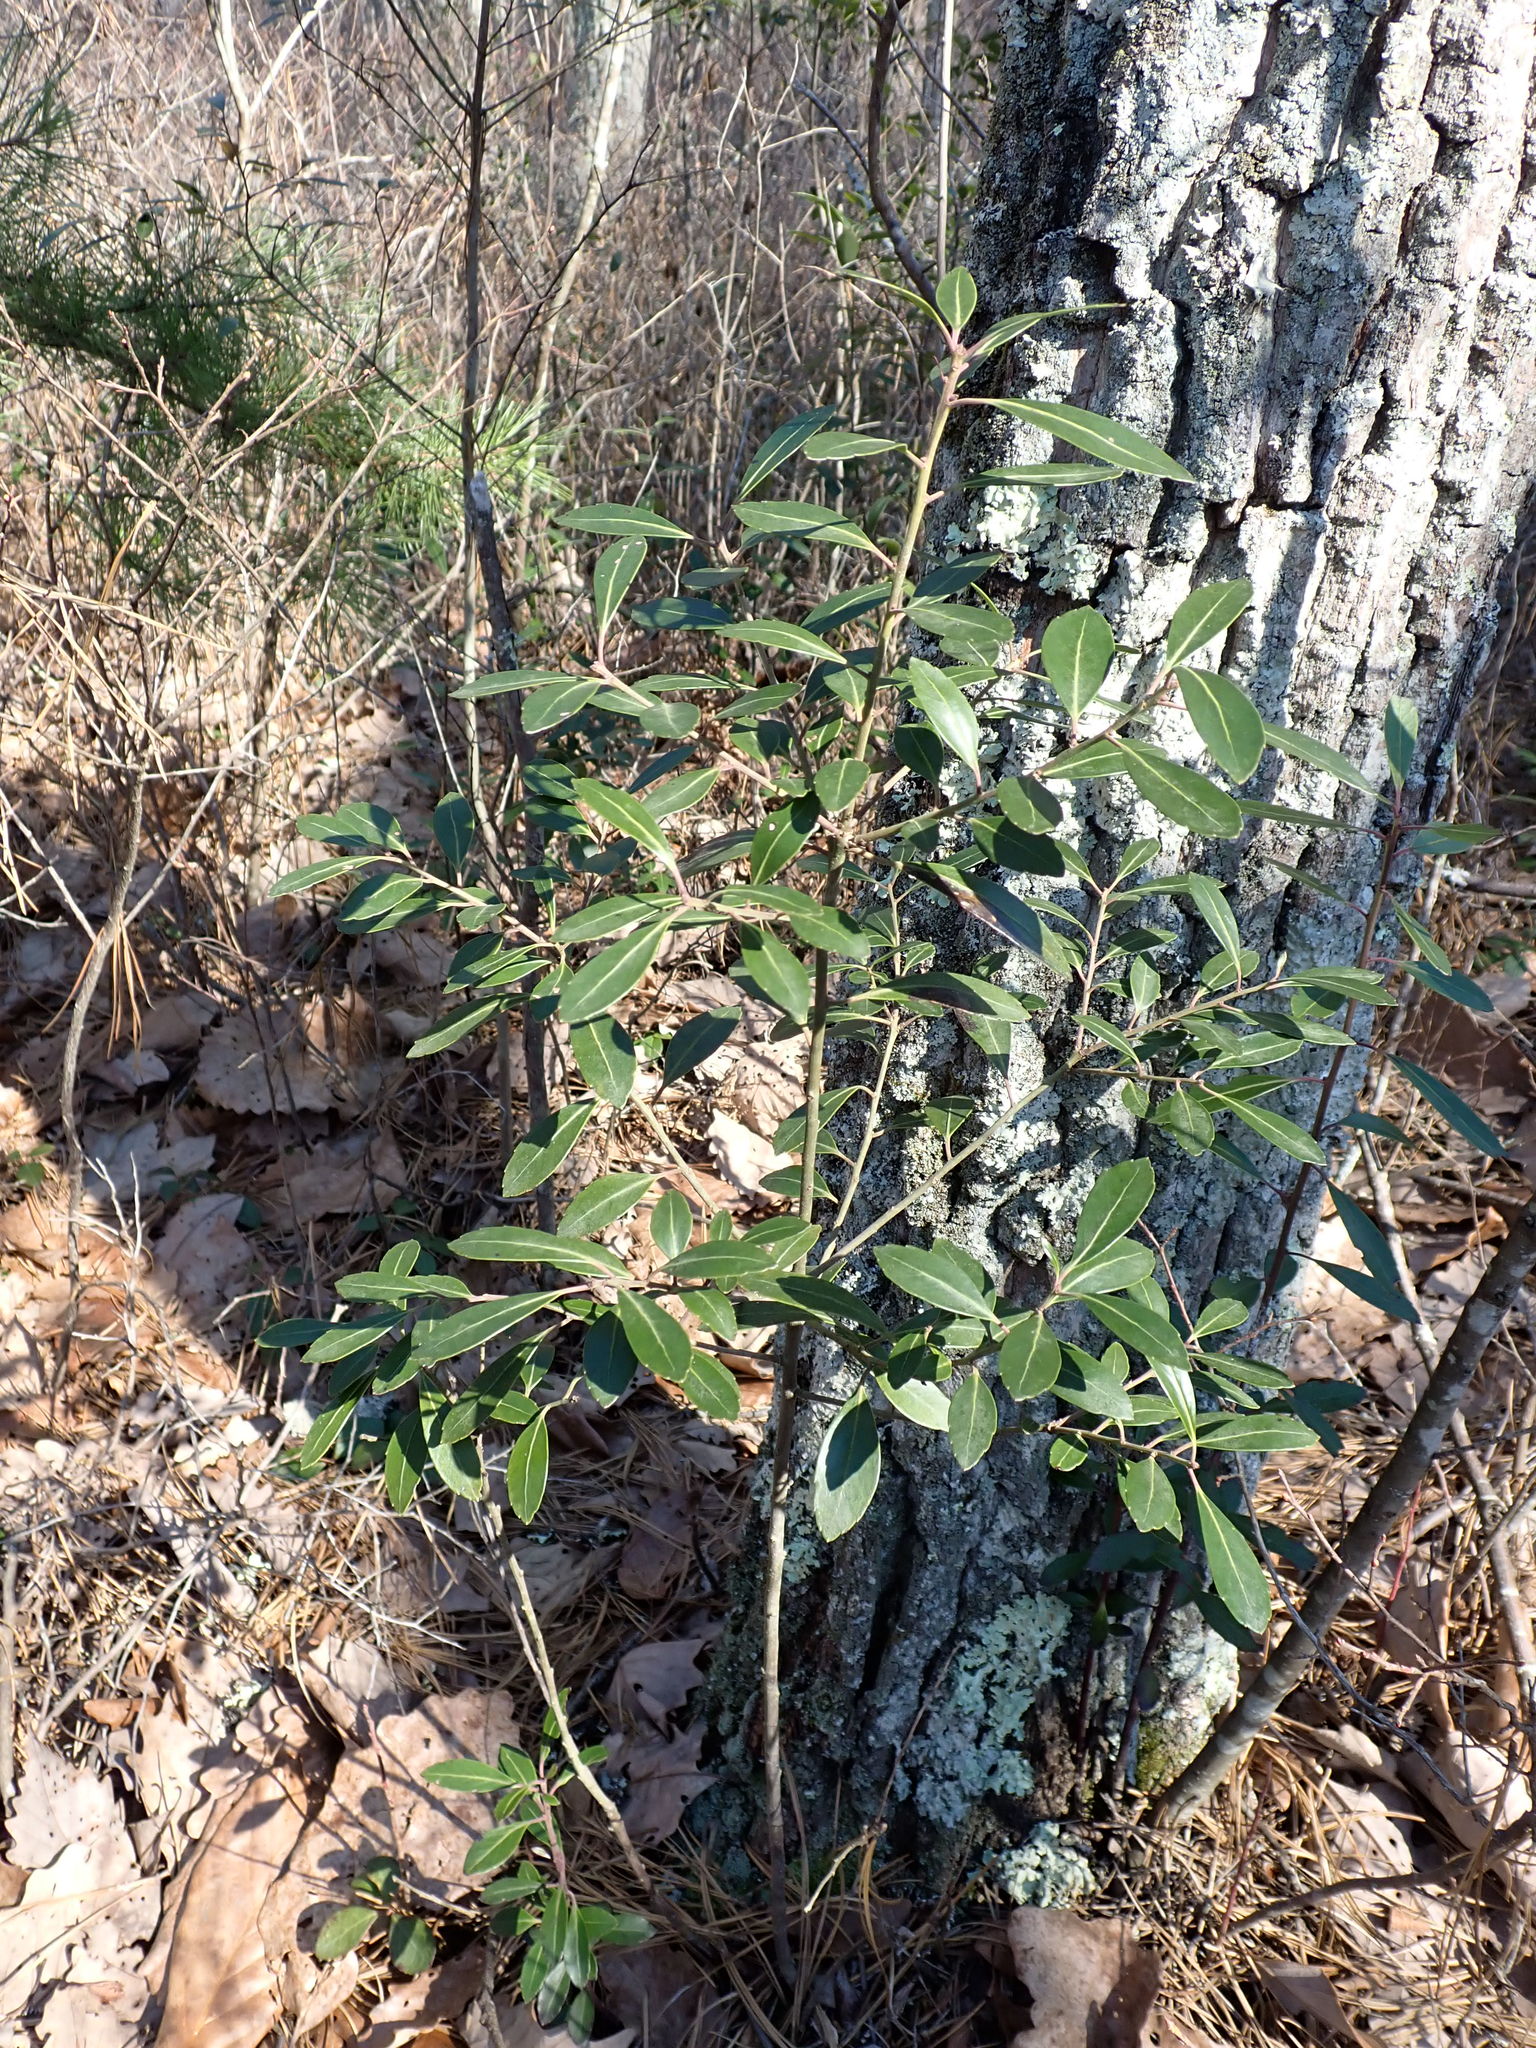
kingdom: Plantae
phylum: Tracheophyta
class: Liliopsida
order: Poales
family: Poaceae
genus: Danthonia
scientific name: Danthonia spicata
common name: Common wild oatgrass
